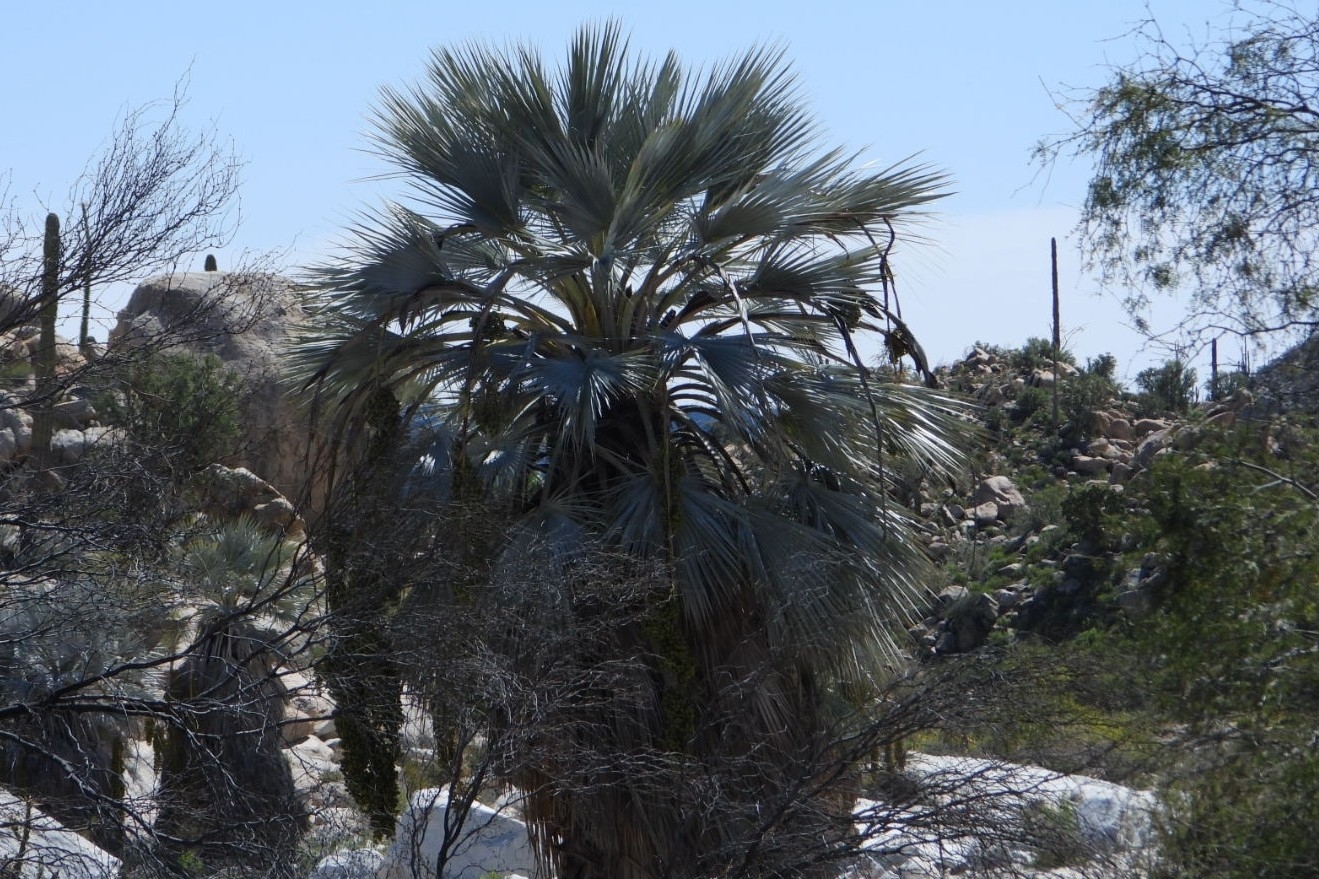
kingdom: Plantae
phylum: Tracheophyta
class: Liliopsida
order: Arecales
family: Arecaceae
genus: Brahea
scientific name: Brahea armata
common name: Mexican blue palm
